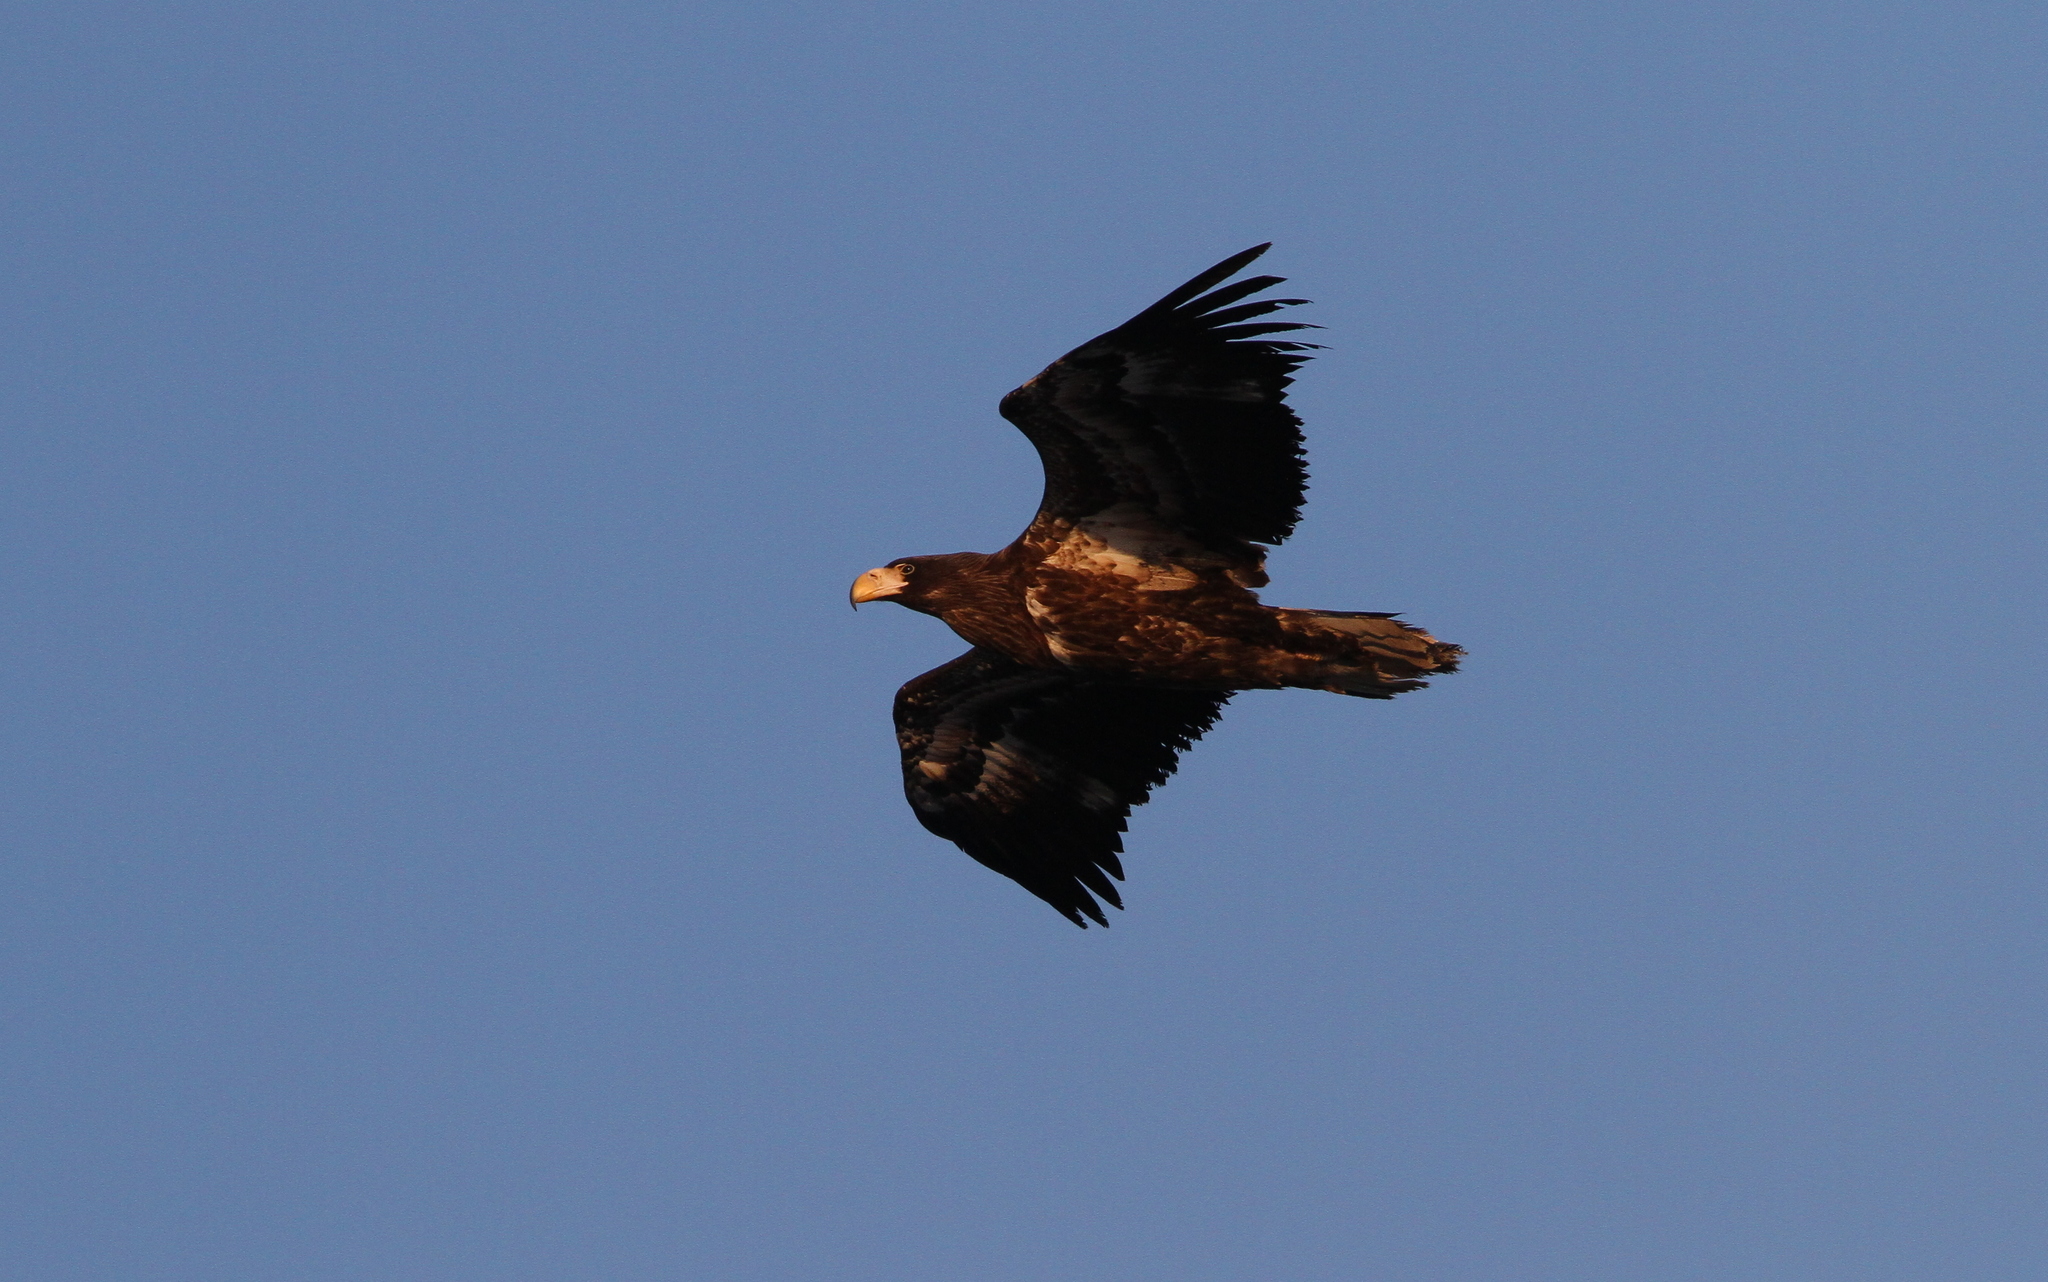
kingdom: Animalia
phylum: Chordata
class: Aves
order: Accipitriformes
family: Accipitridae
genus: Haliaeetus
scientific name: Haliaeetus pelagicus
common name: Steller's sea eagle
